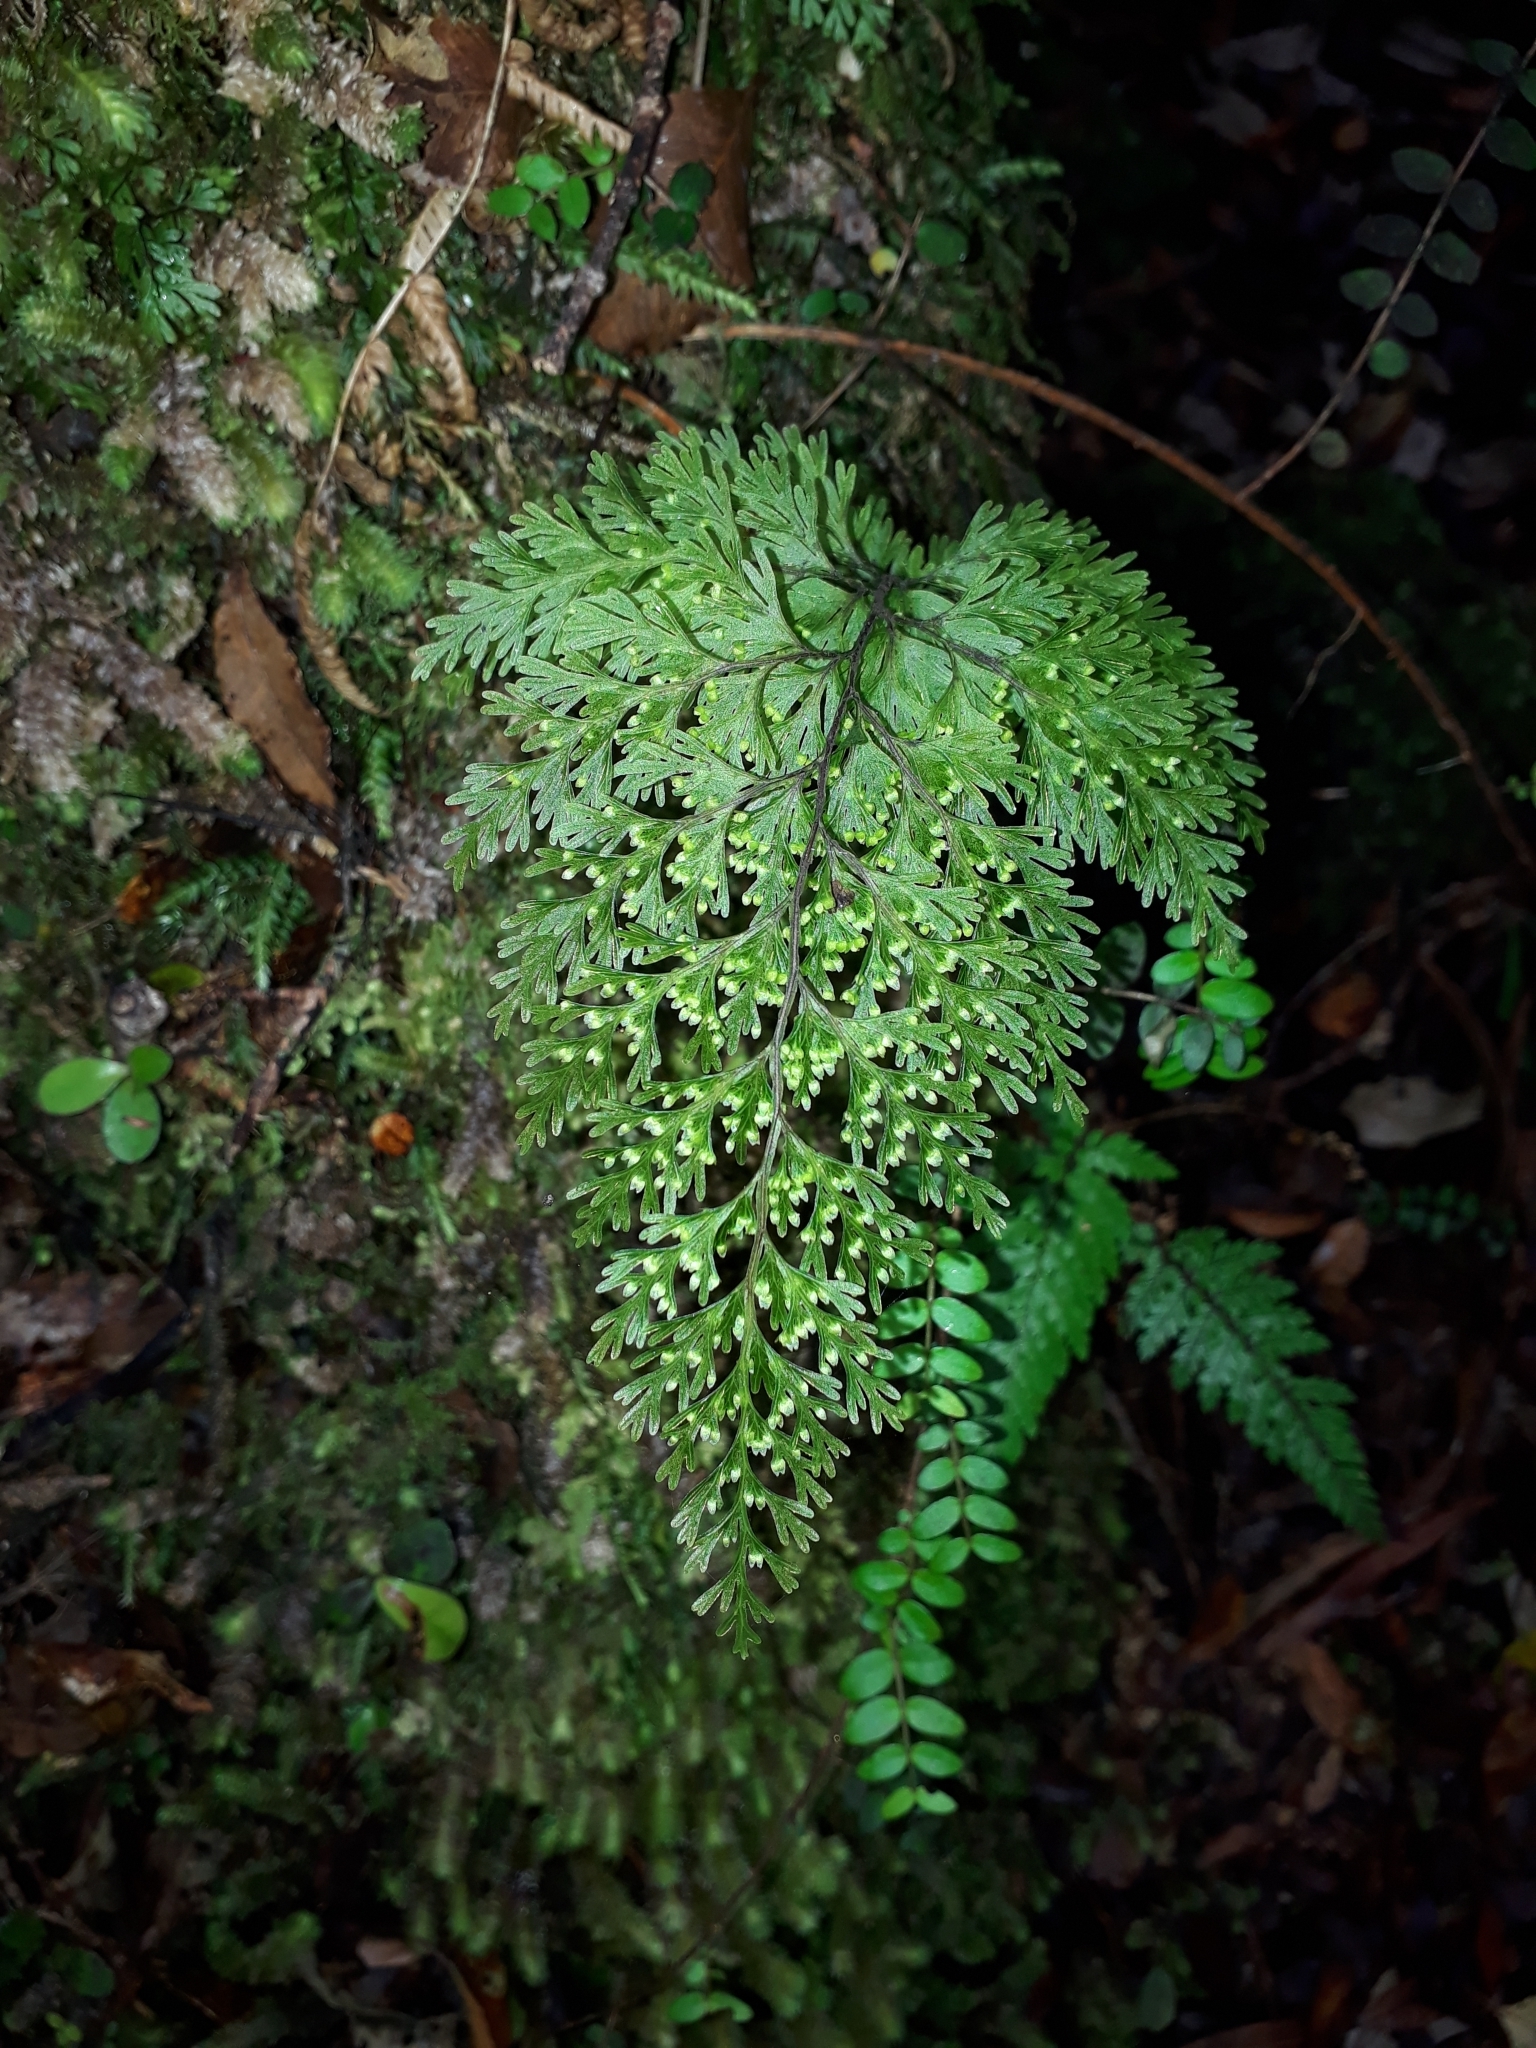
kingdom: Plantae
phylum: Tracheophyta
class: Polypodiopsida
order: Hymenophyllales
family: Hymenophyllaceae
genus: Hymenophyllum
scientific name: Hymenophyllum demissum
